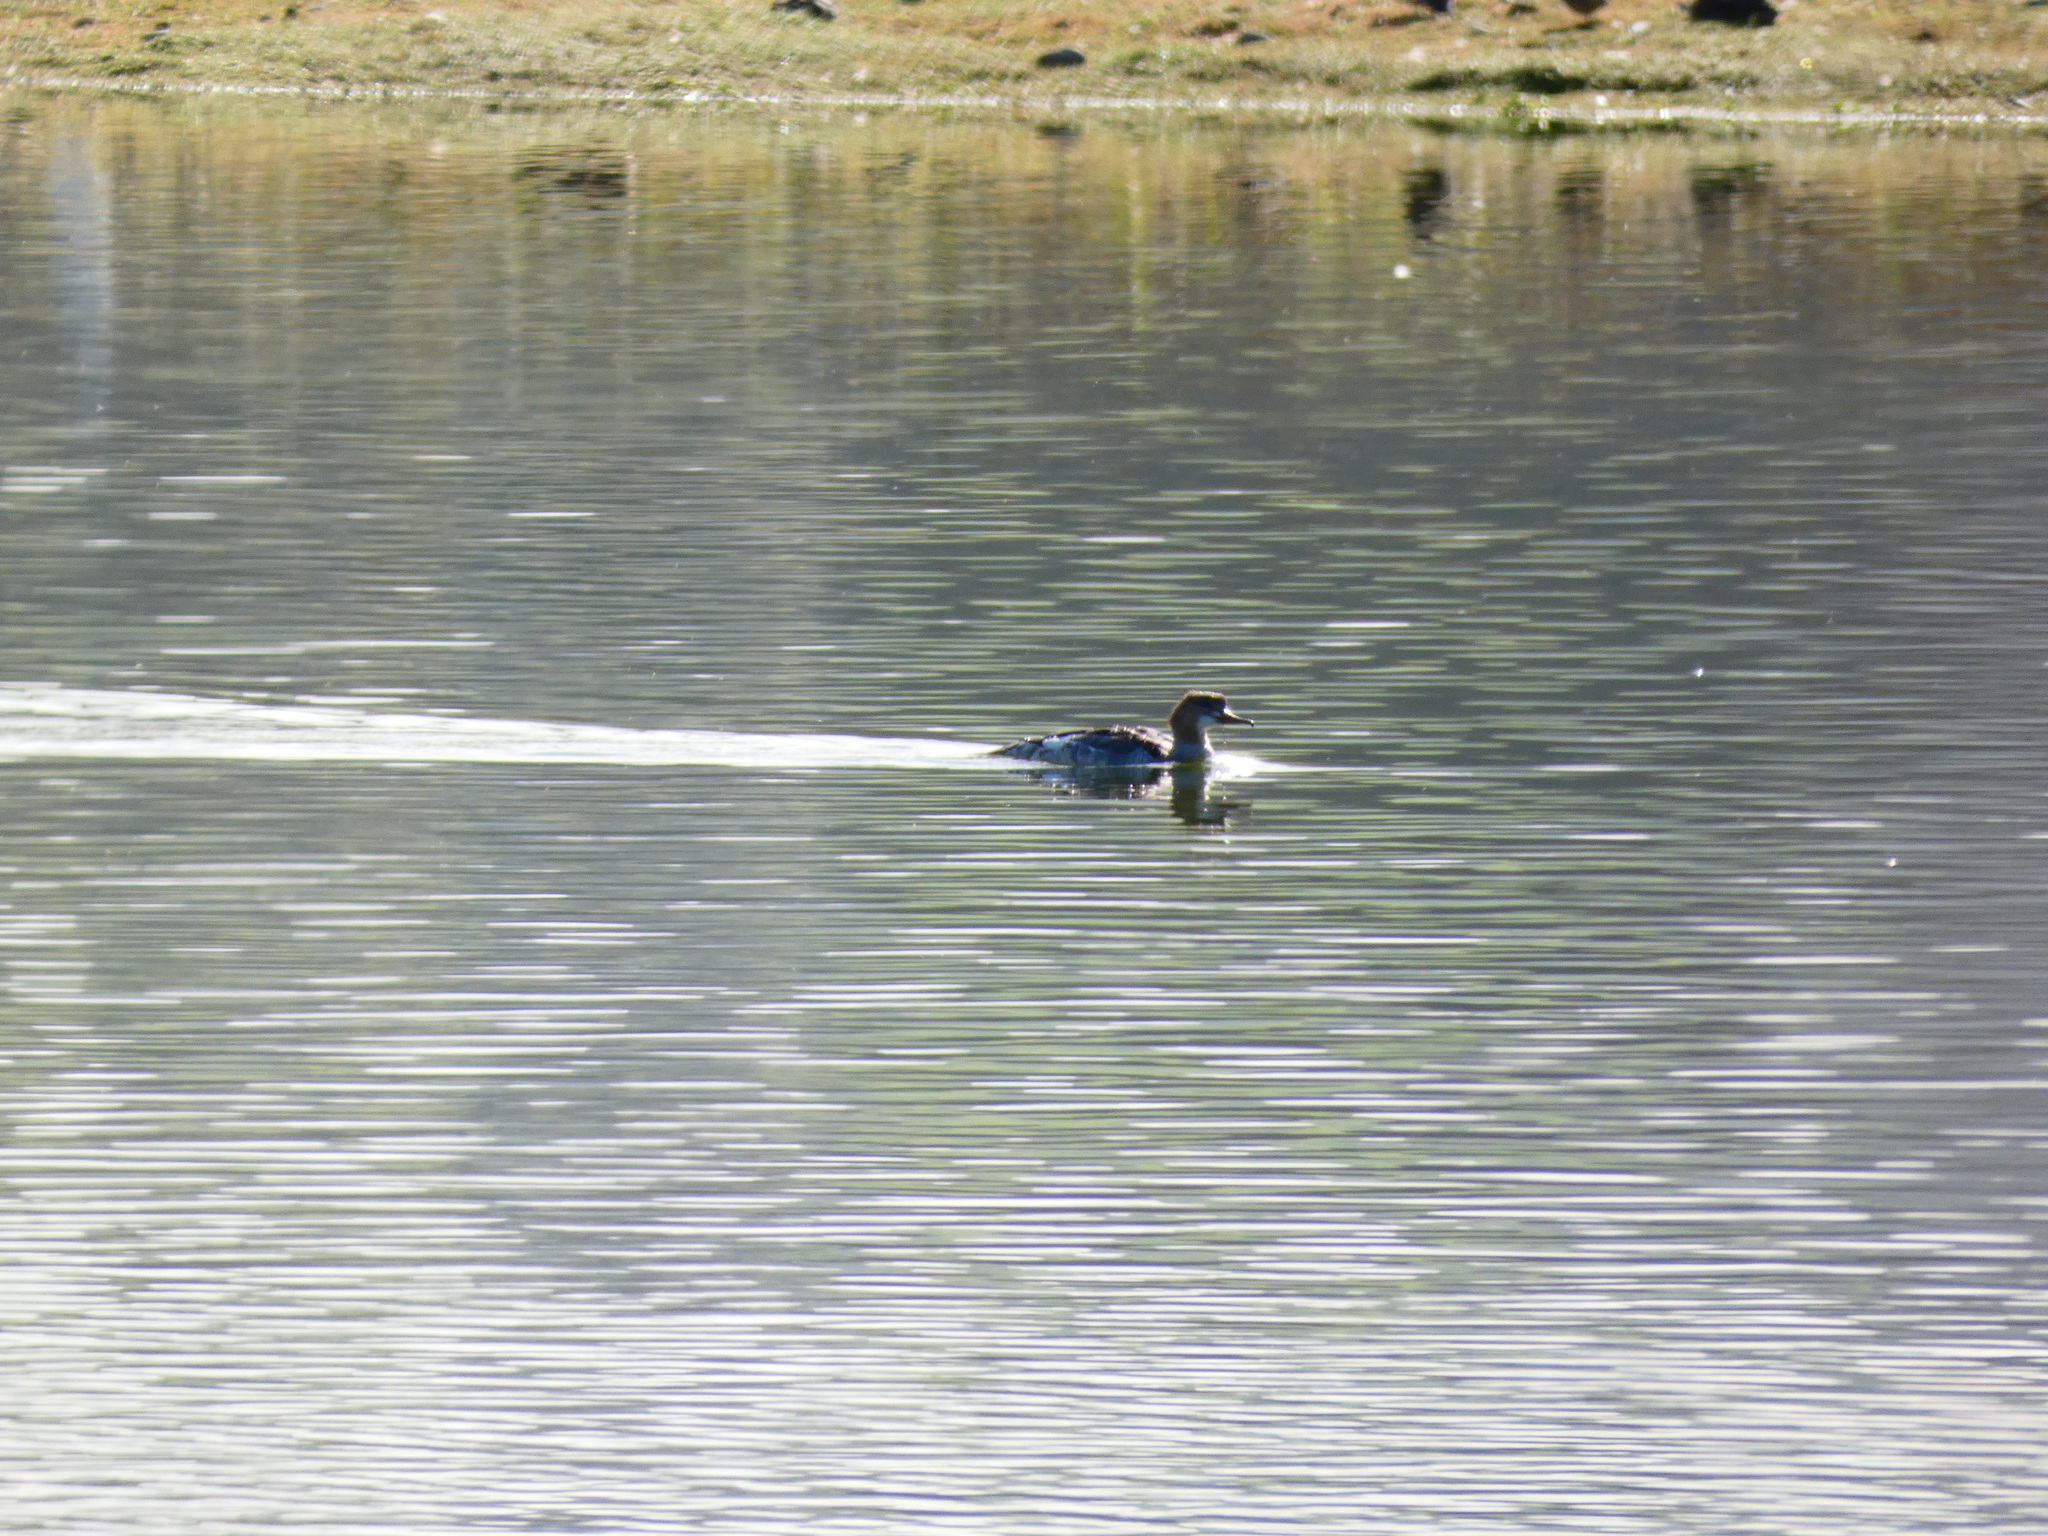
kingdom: Animalia
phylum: Chordata
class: Aves
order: Anseriformes
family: Anatidae
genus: Mergus
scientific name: Mergus merganser
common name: Common merganser
